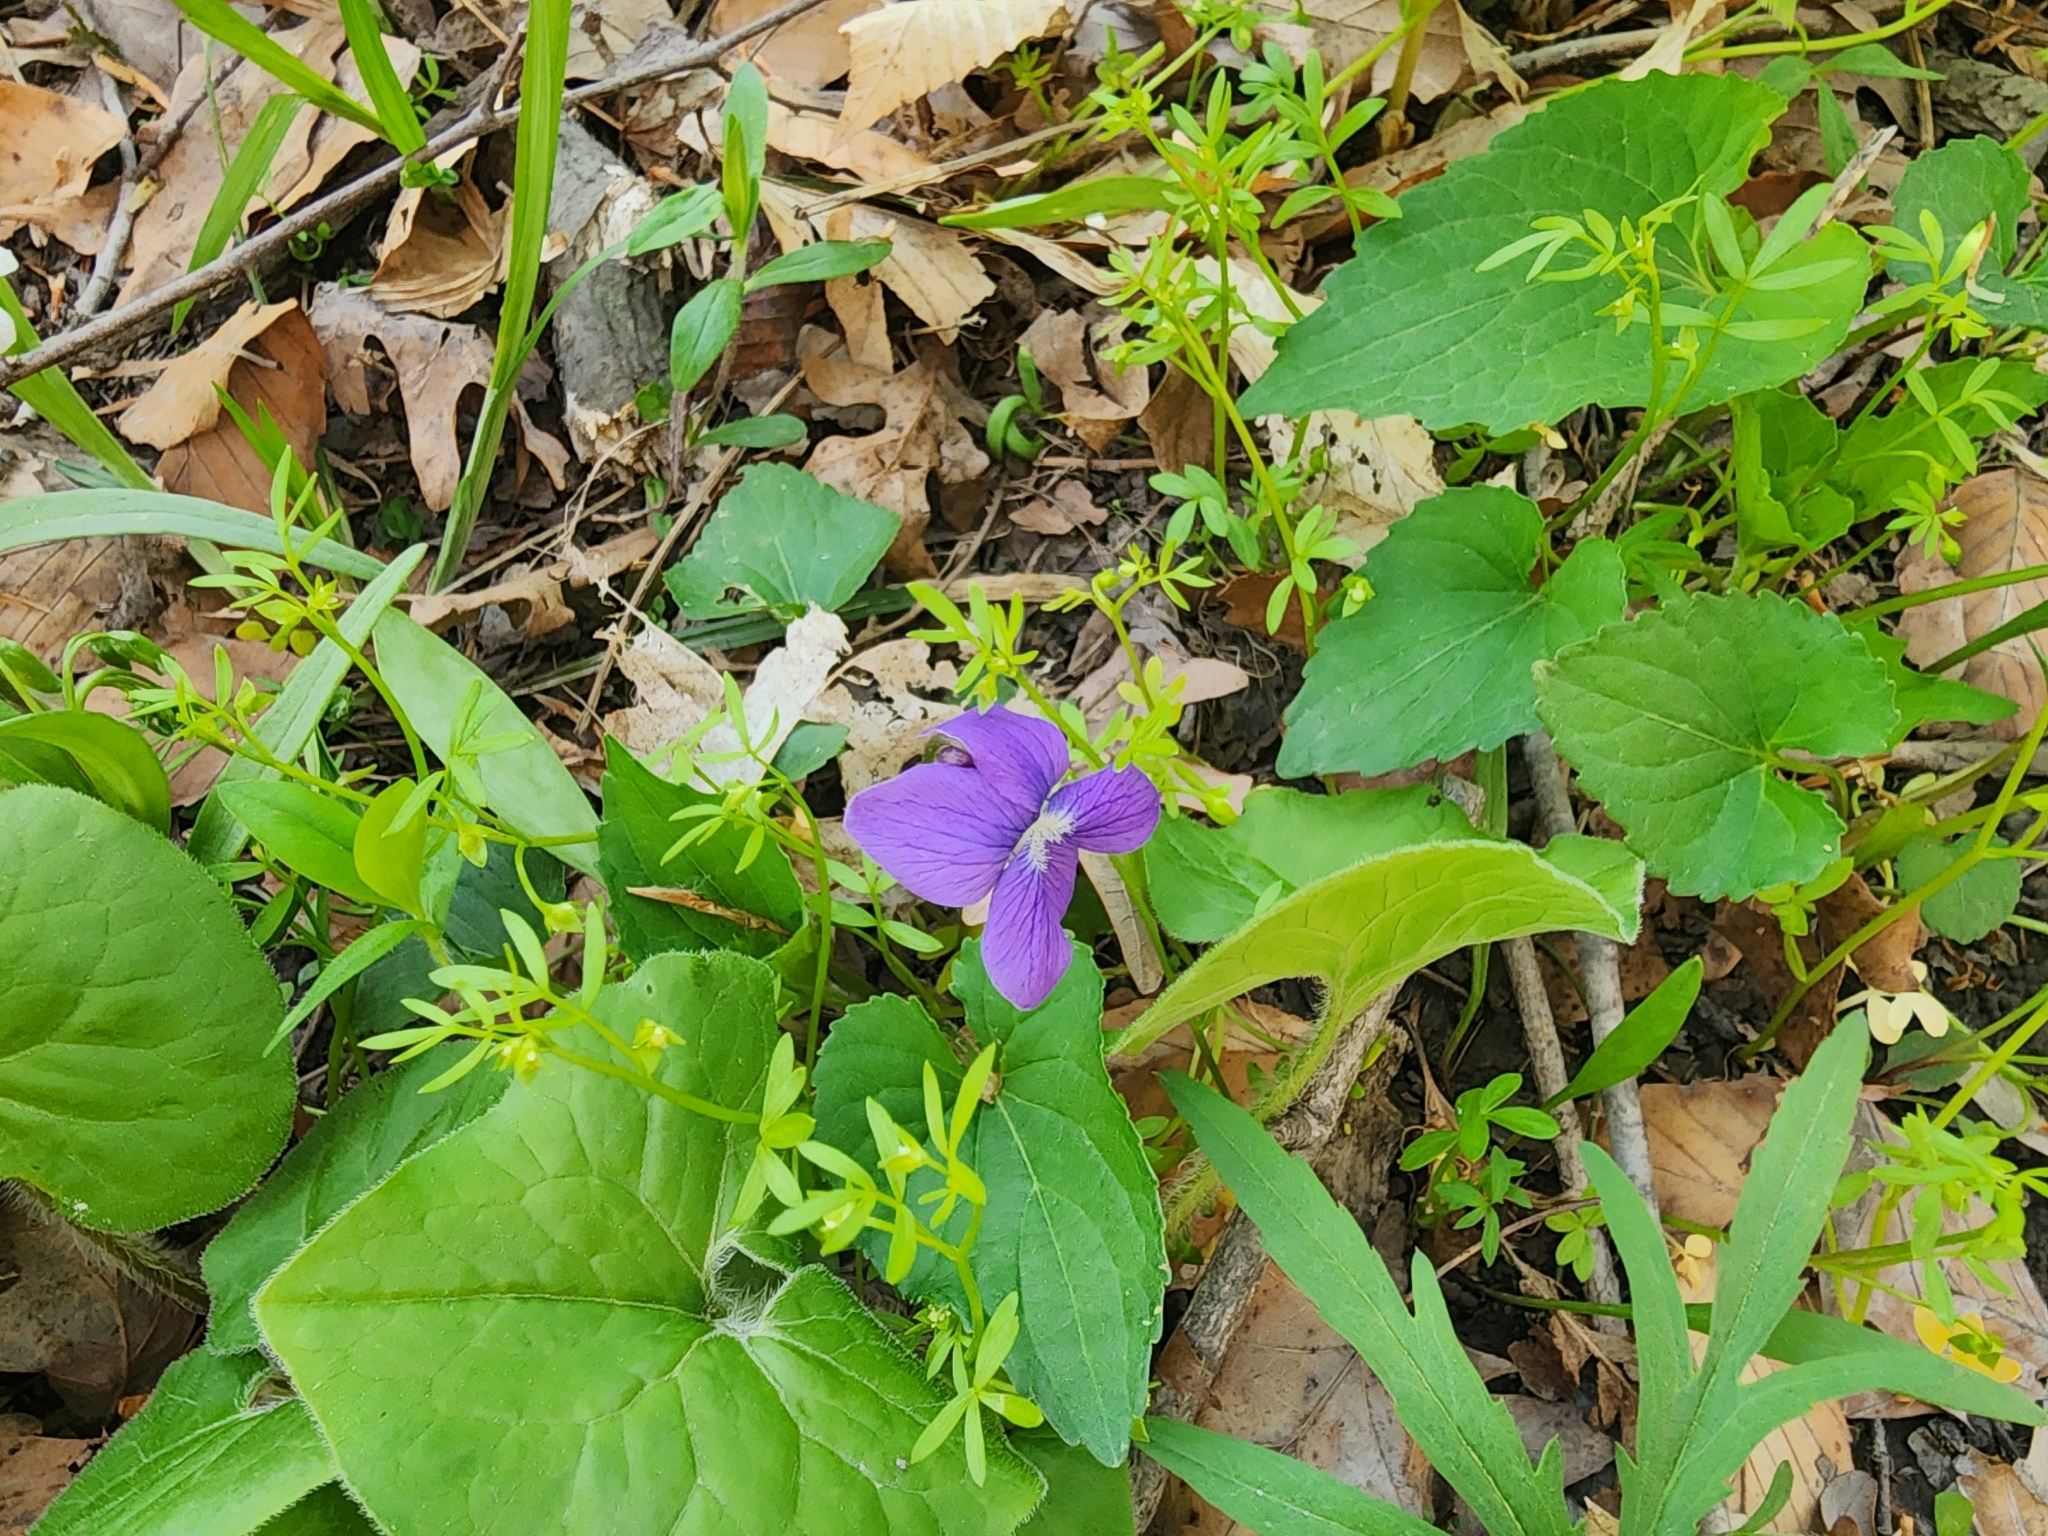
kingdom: Plantae
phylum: Tracheophyta
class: Magnoliopsida
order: Malpighiales
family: Violaceae
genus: Viola
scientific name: Viola sororia
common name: Dooryard violet
